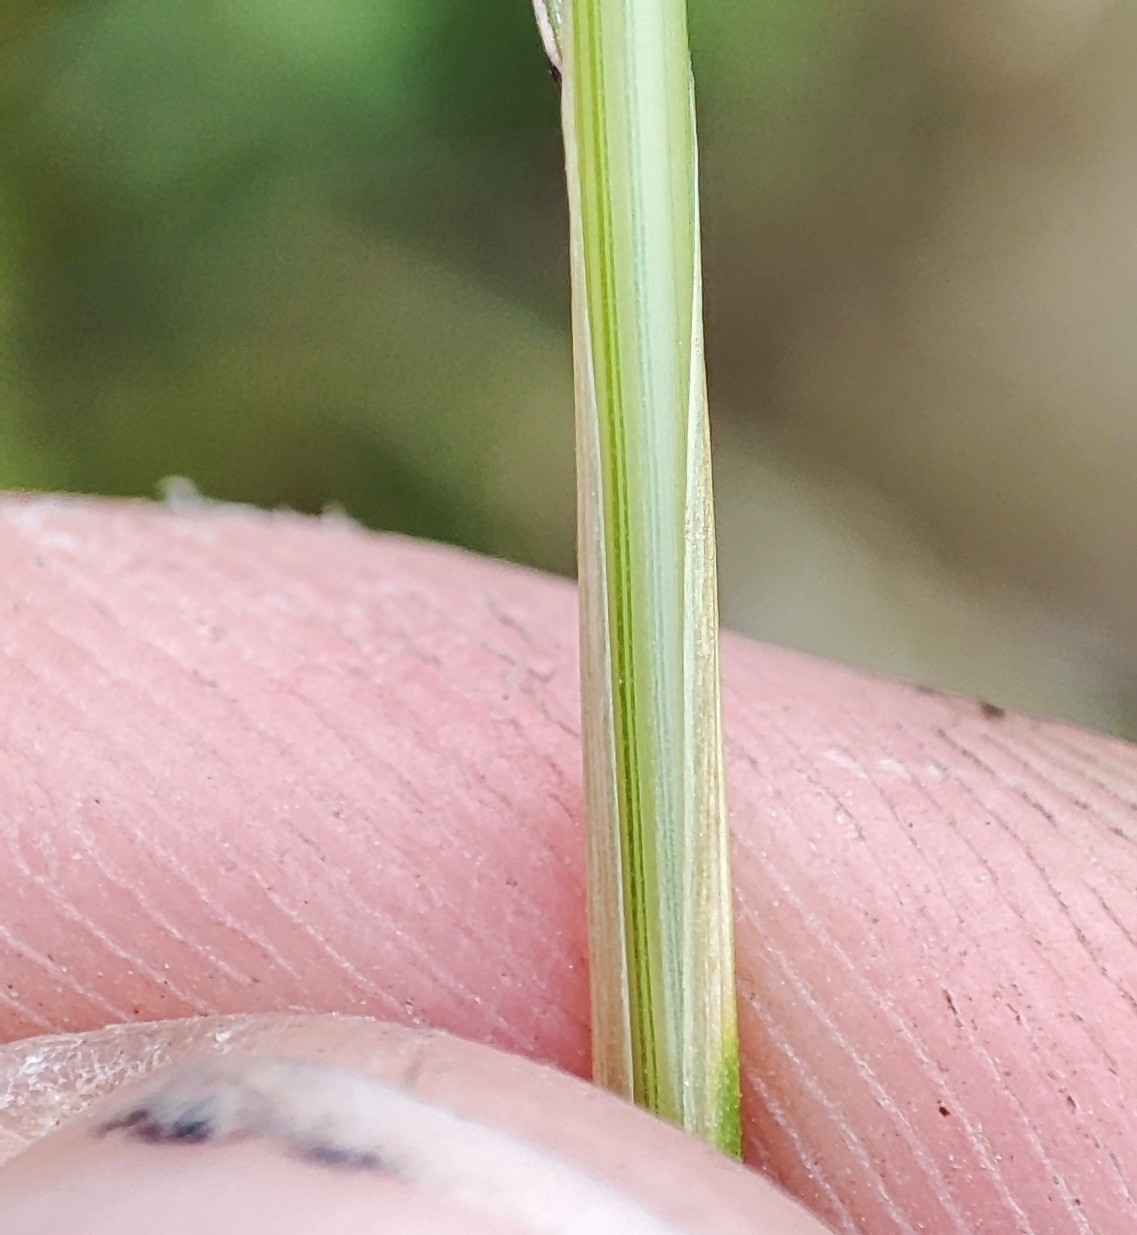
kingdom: Plantae
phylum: Tracheophyta
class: Liliopsida
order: Poales
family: Poaceae
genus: Deschampsia
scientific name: Deschampsia cespitosa
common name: Tufted hair-grass
